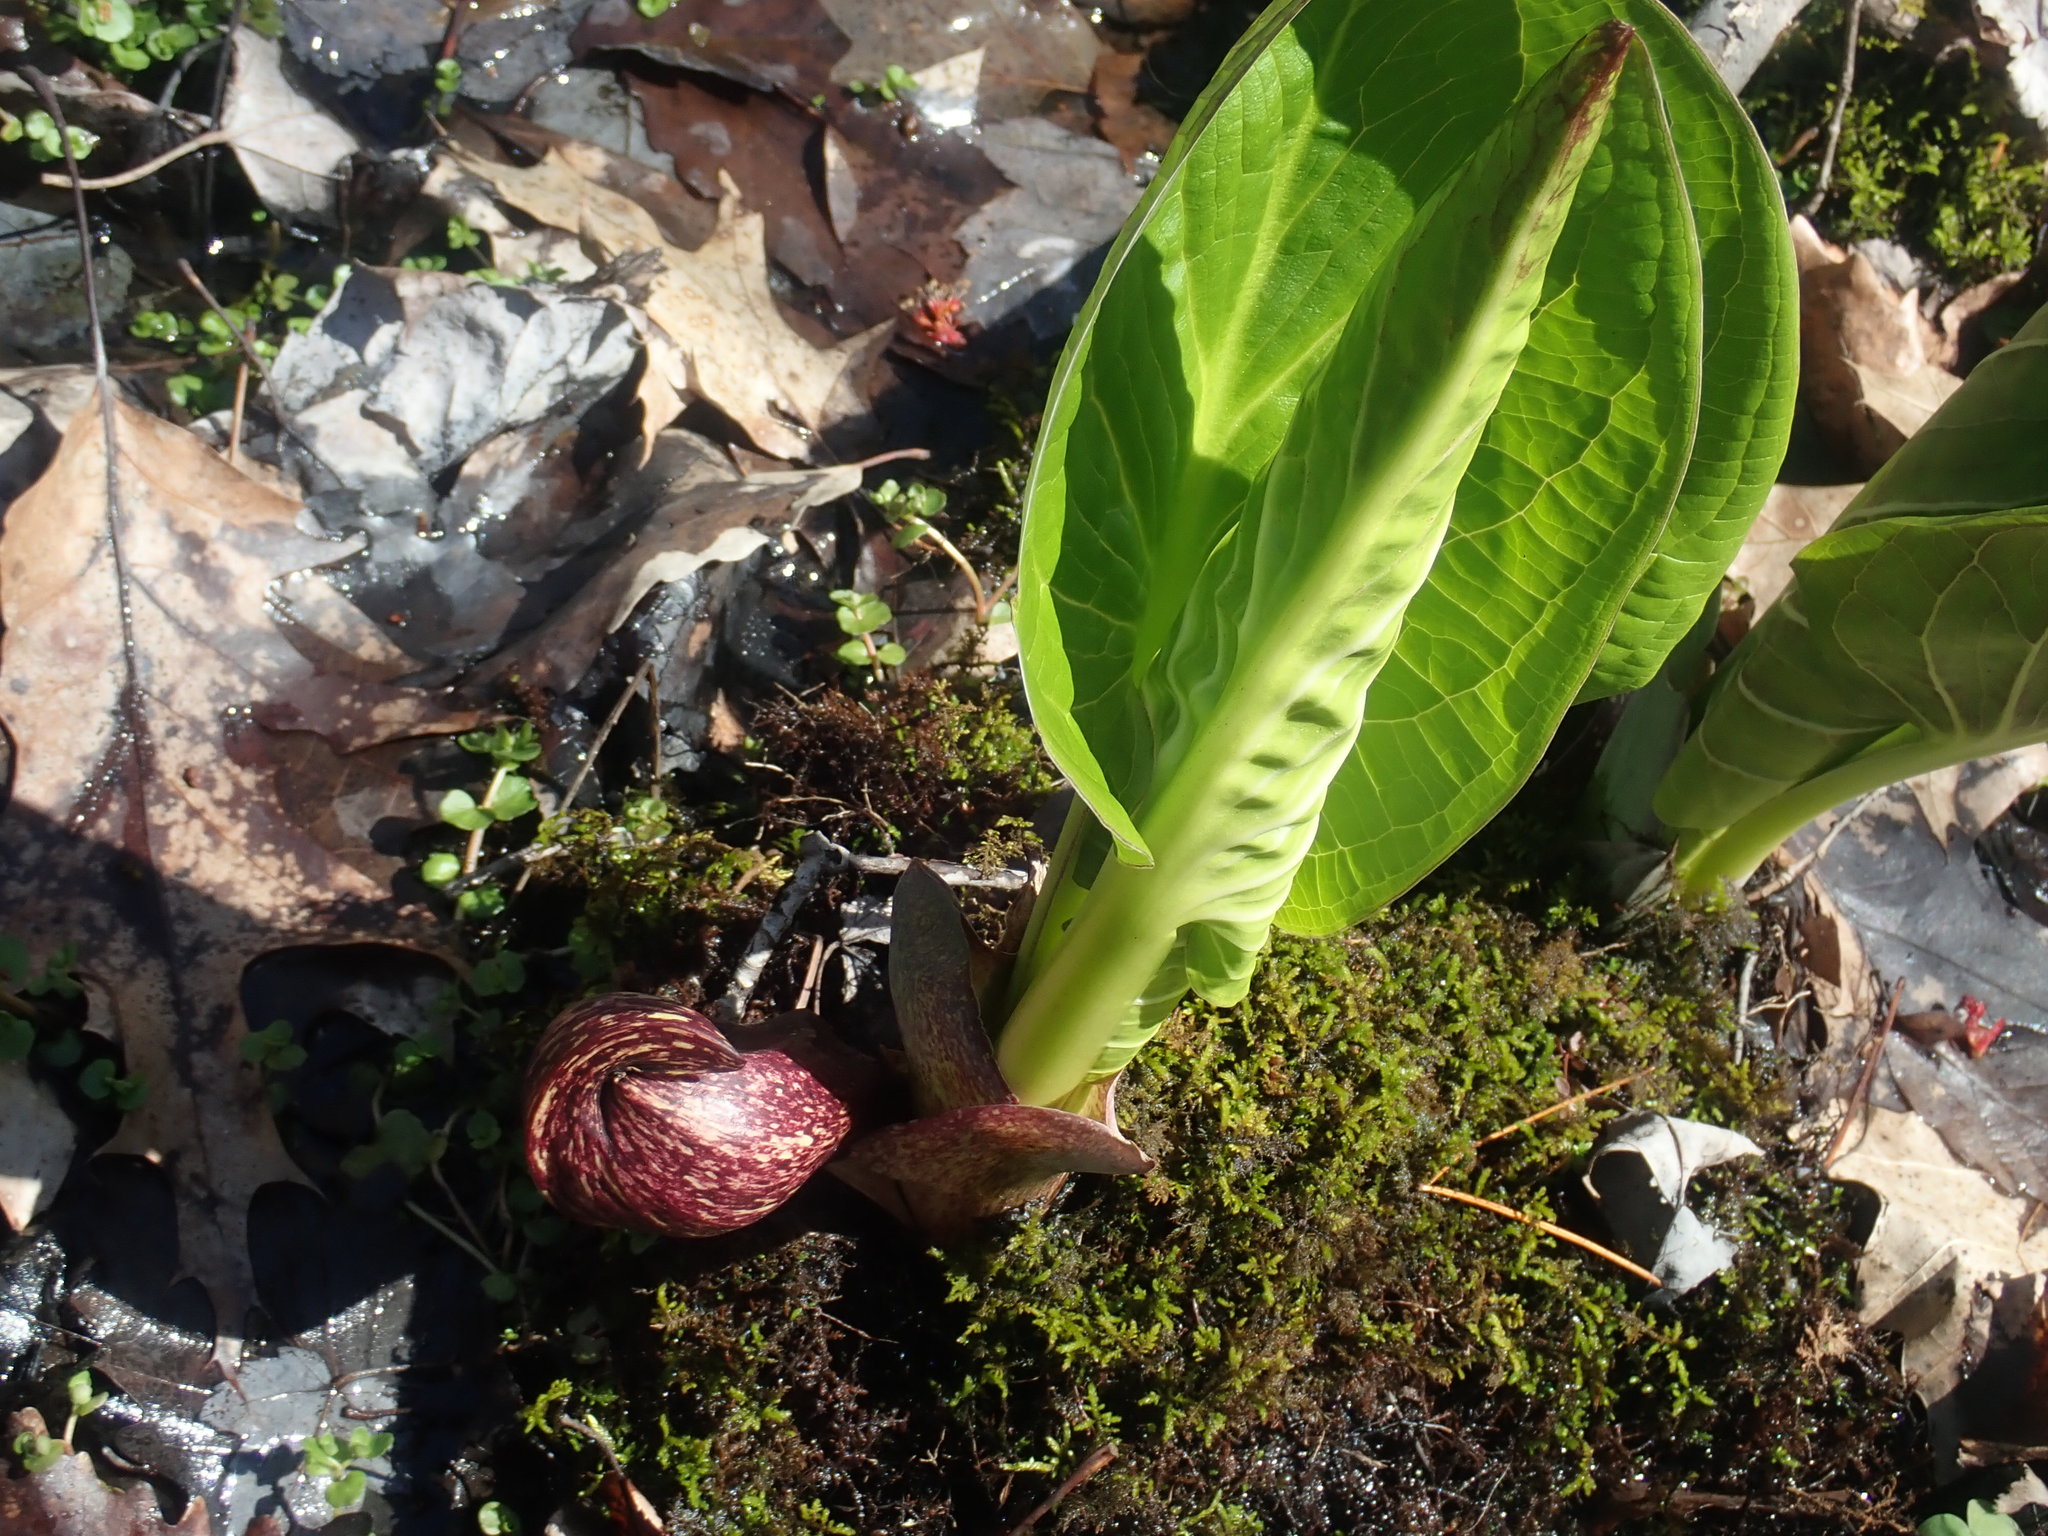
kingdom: Plantae
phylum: Tracheophyta
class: Liliopsida
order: Alismatales
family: Araceae
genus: Symplocarpus
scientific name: Symplocarpus foetidus
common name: Eastern skunk cabbage
